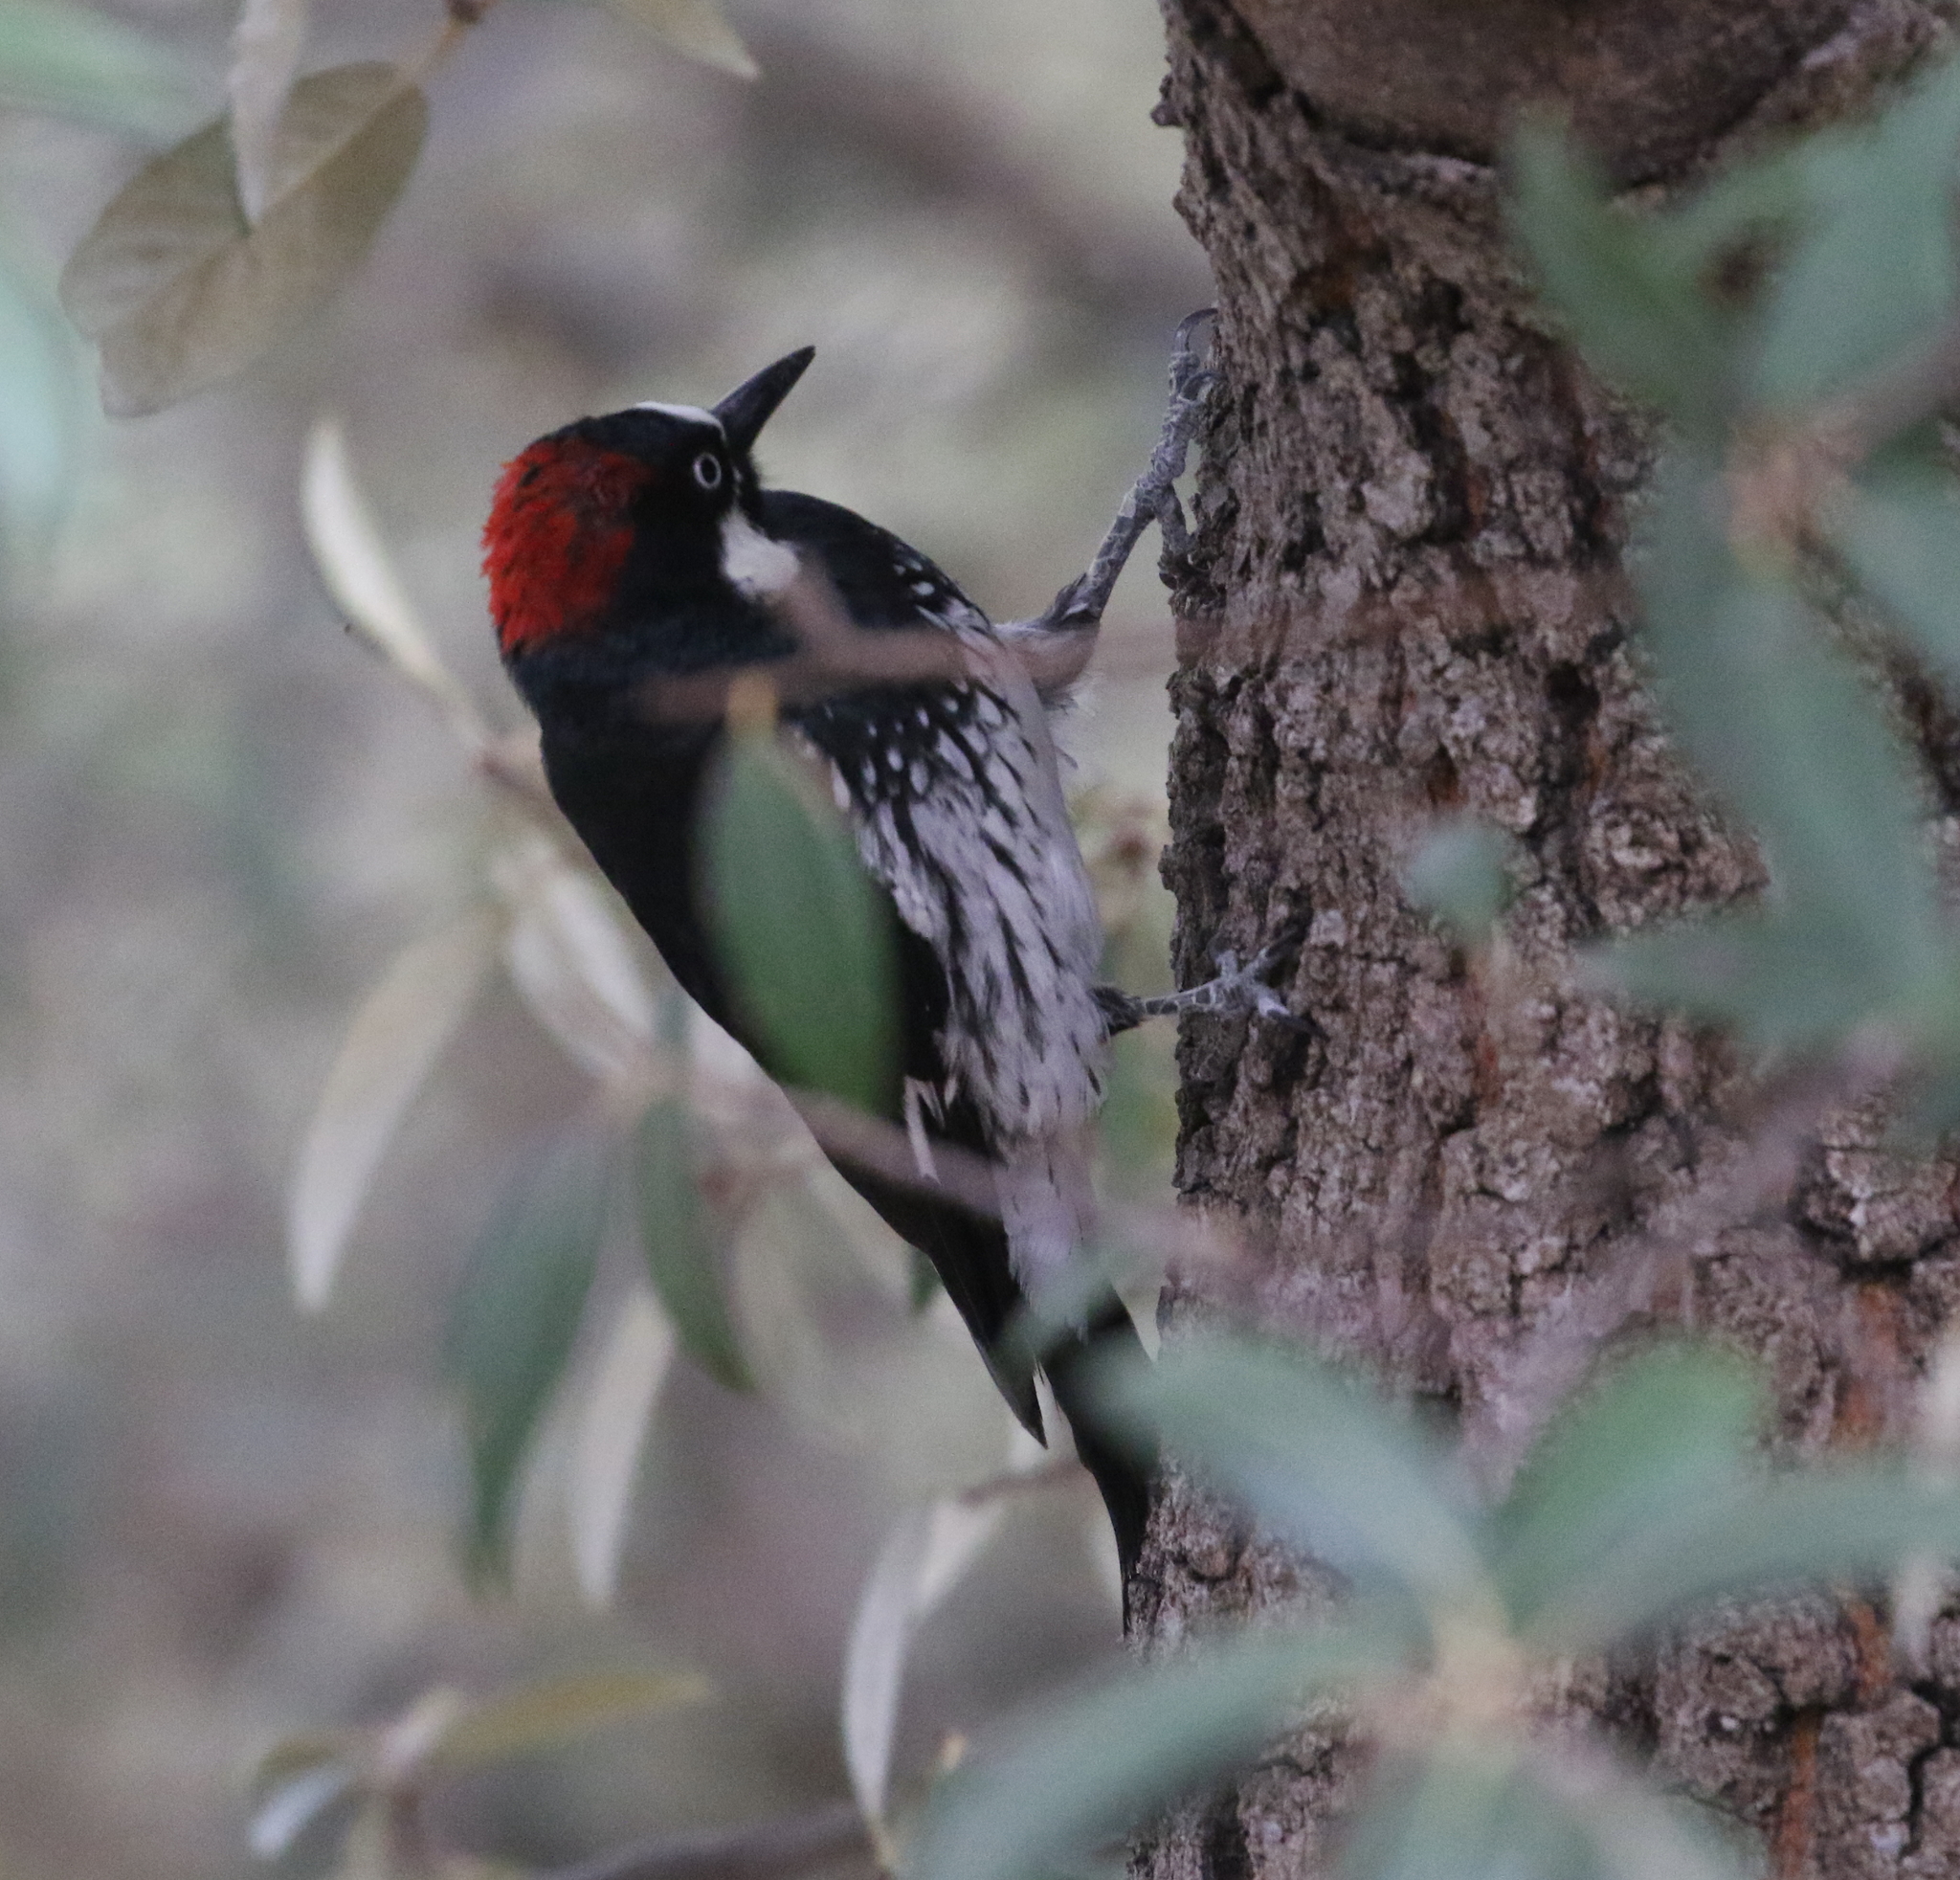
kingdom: Animalia
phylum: Chordata
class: Aves
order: Piciformes
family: Picidae
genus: Melanerpes
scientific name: Melanerpes formicivorus
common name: Acorn woodpecker
